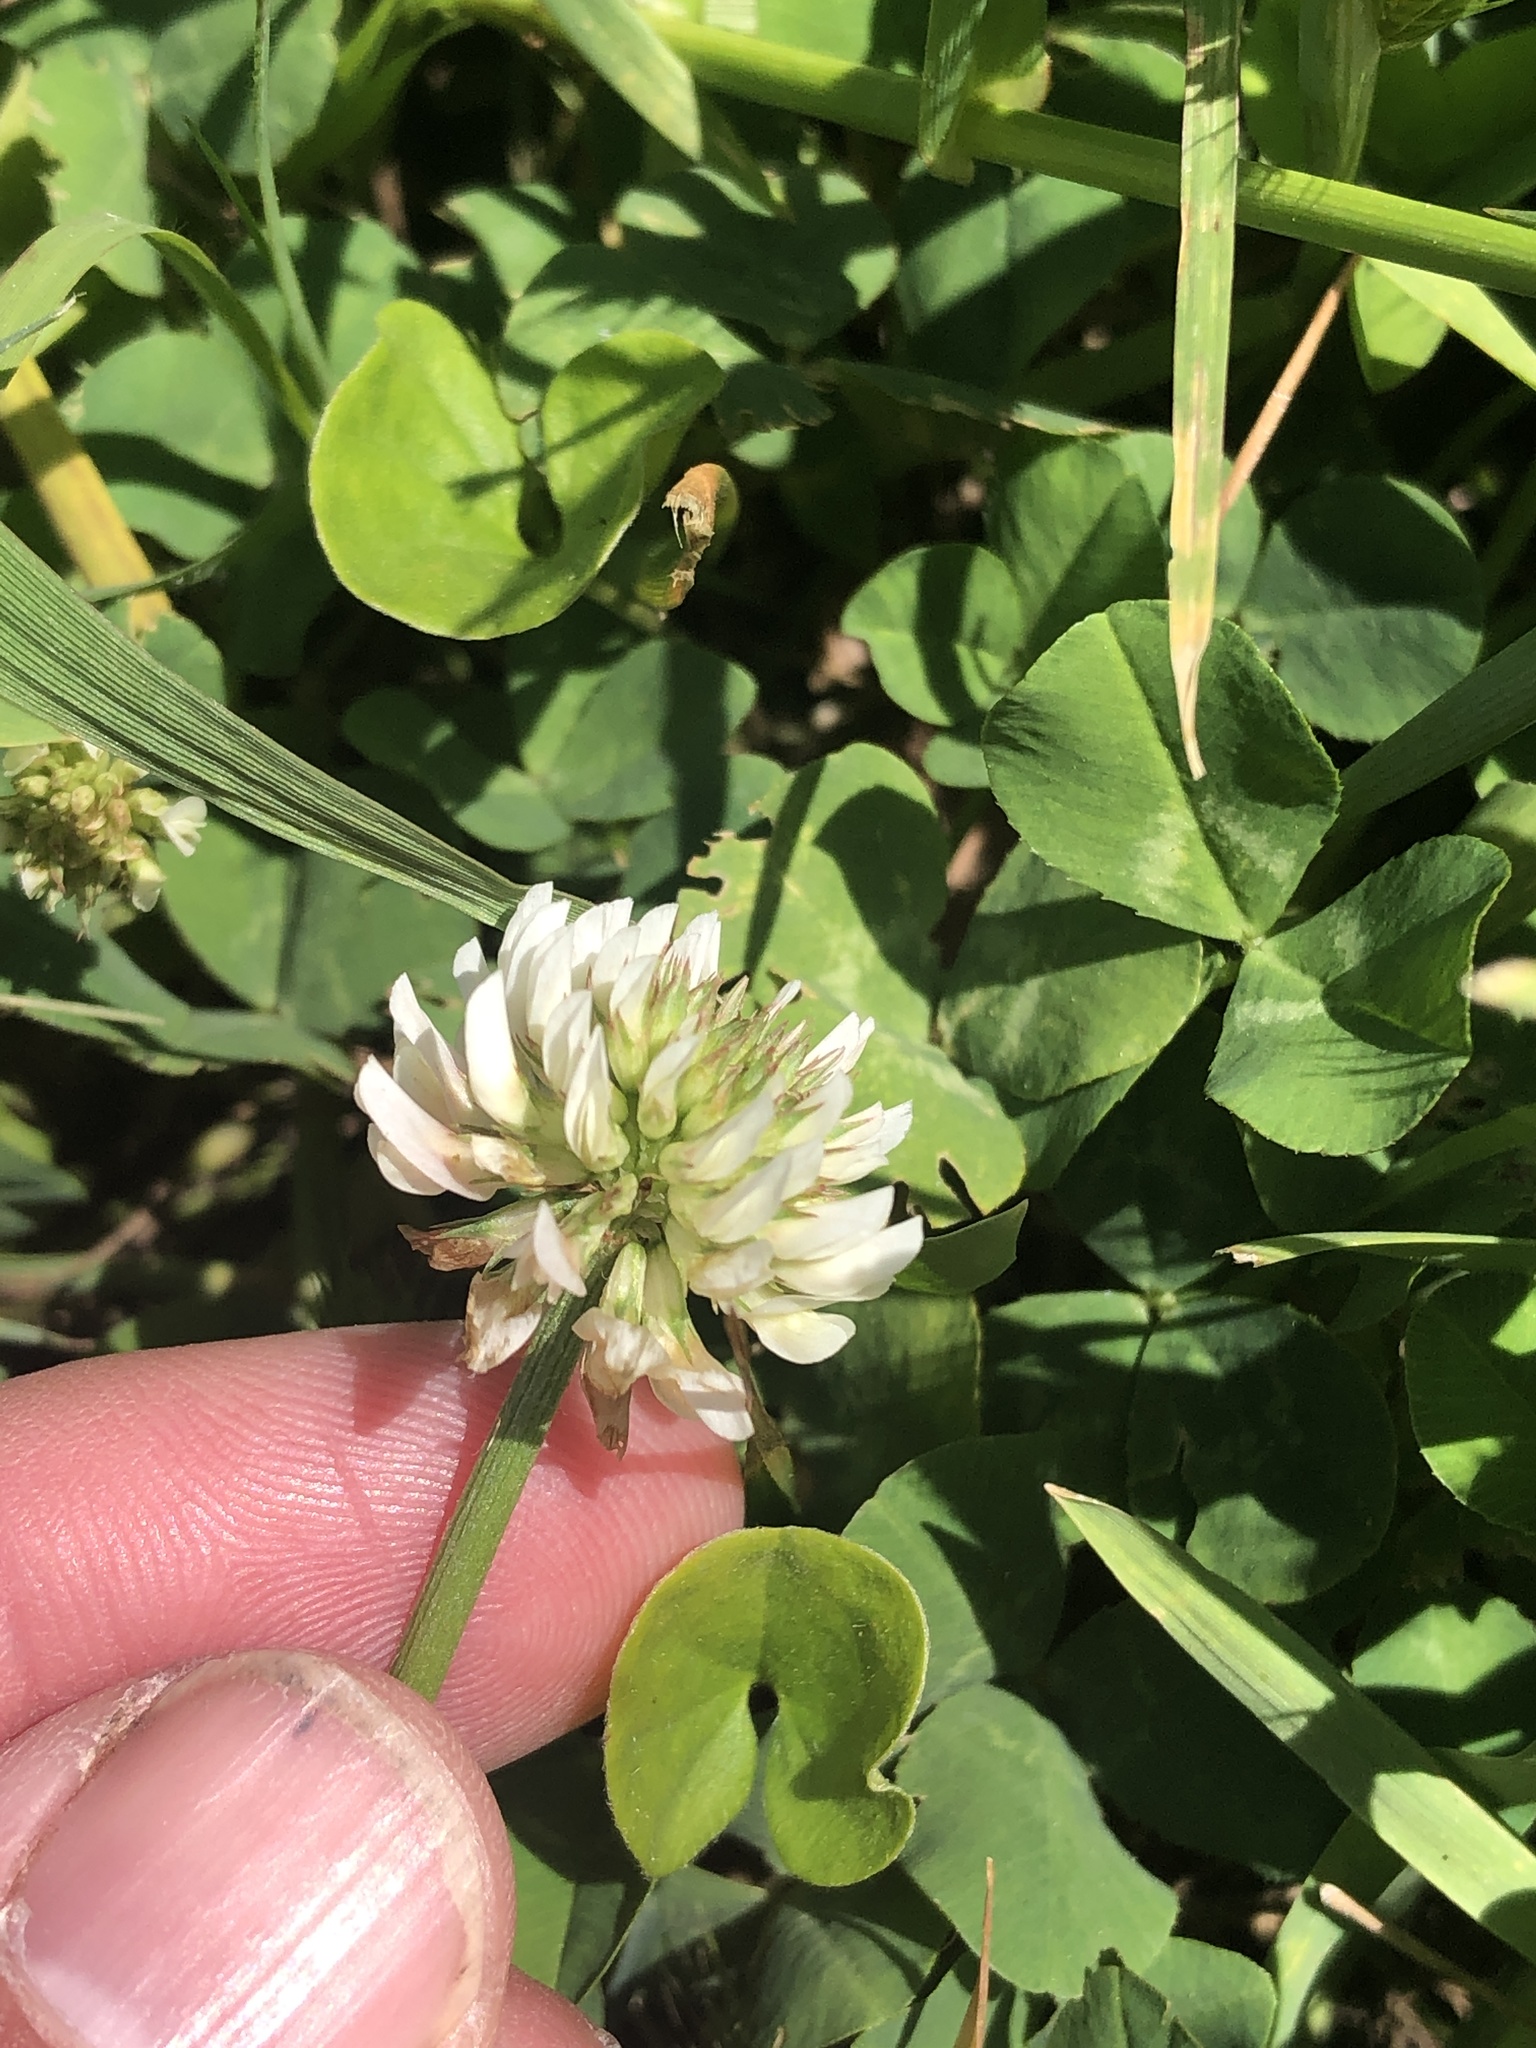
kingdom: Plantae
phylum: Tracheophyta
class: Magnoliopsida
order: Fabales
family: Fabaceae
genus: Trifolium
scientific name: Trifolium repens
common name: White clover
